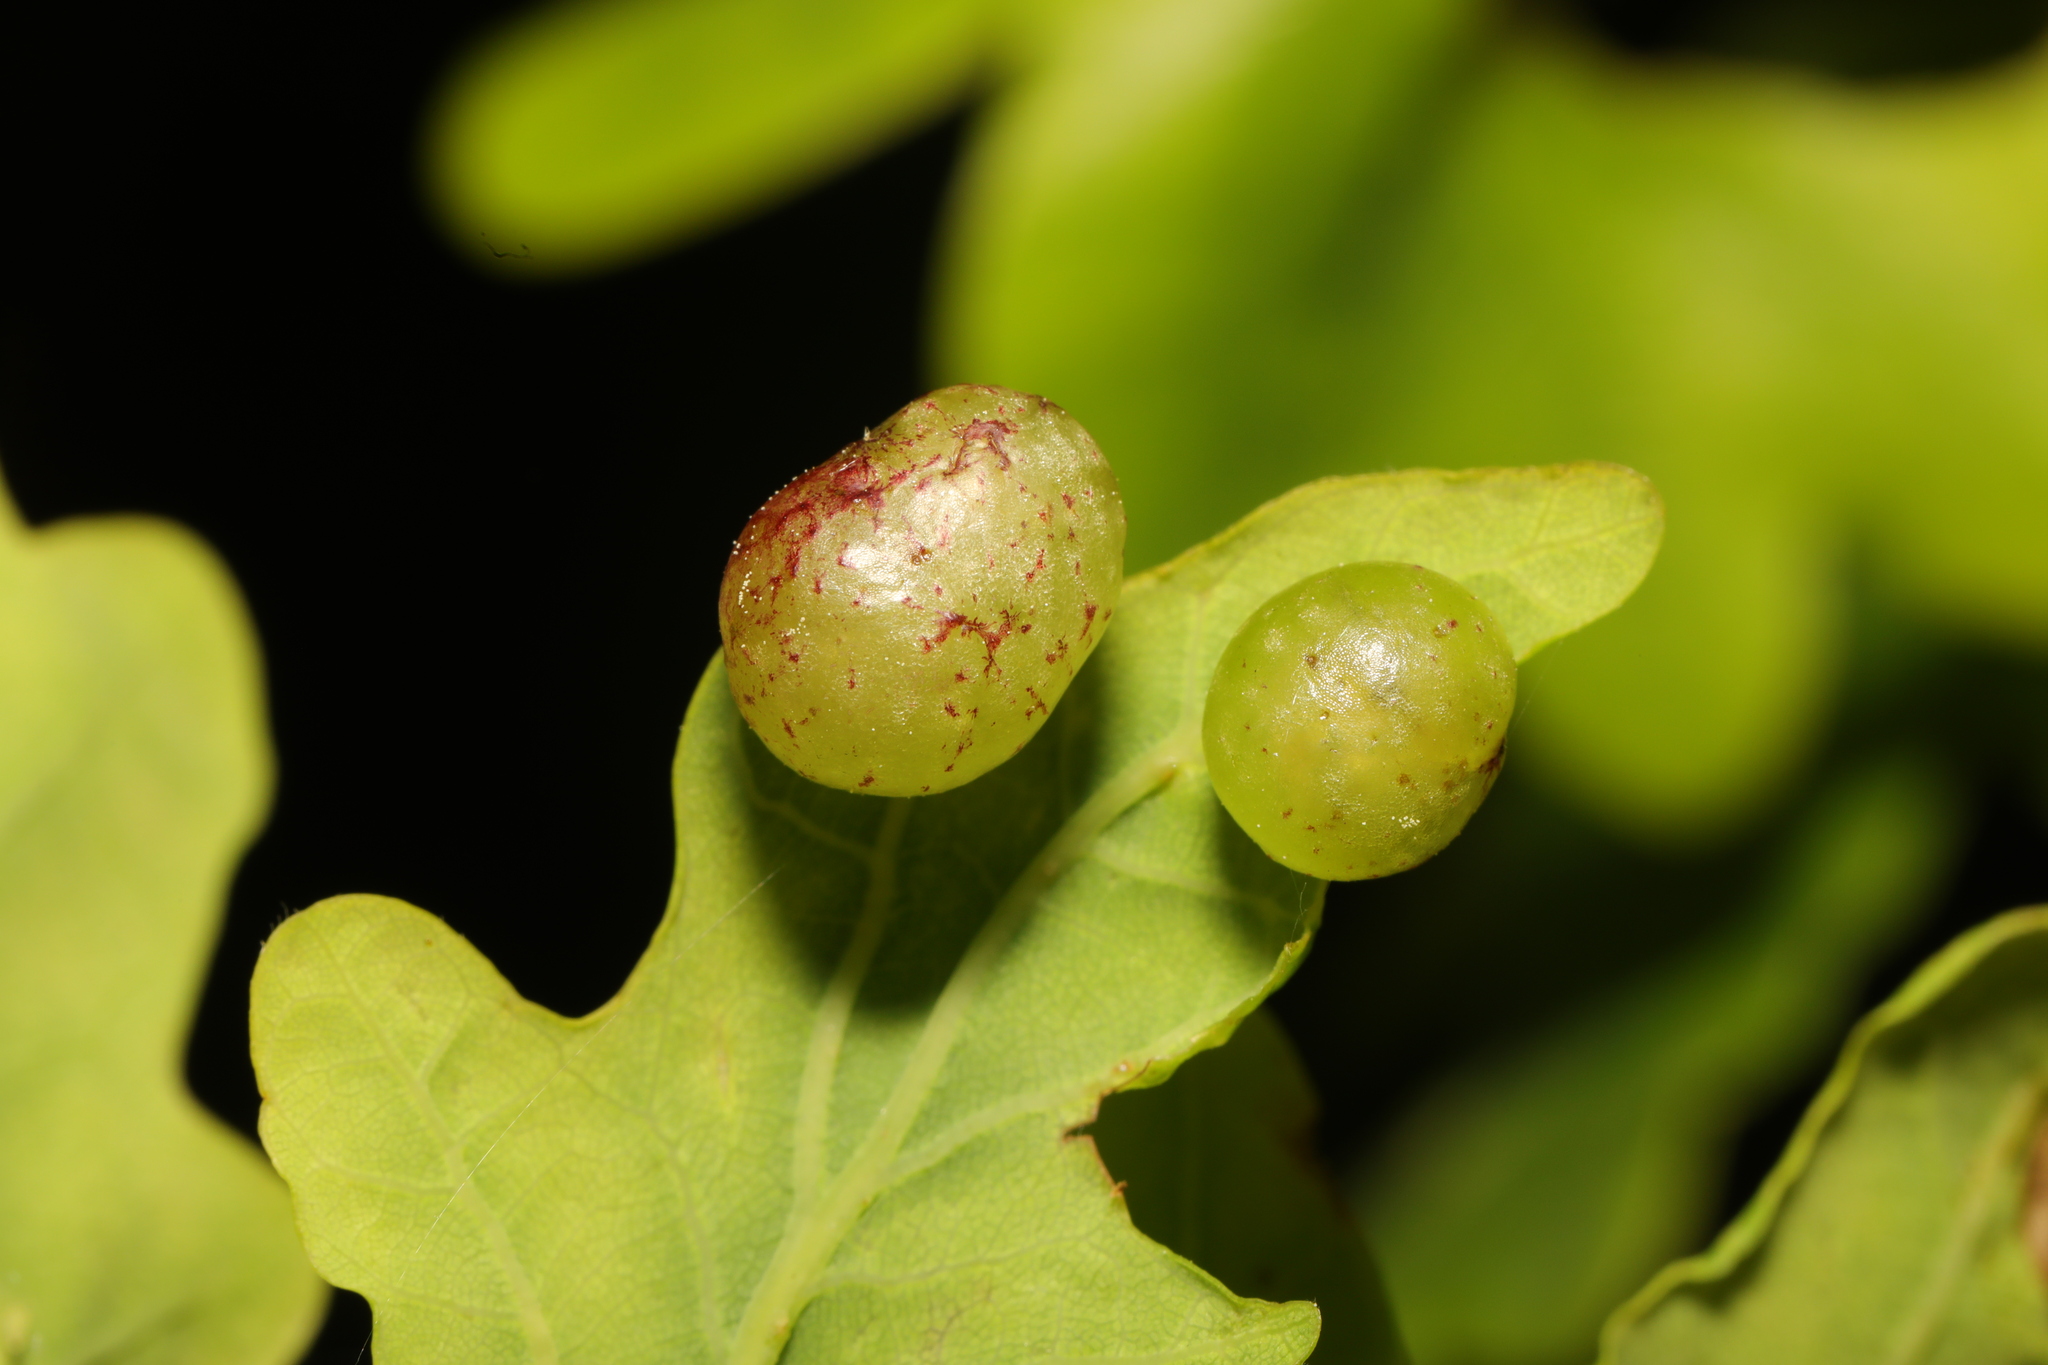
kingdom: Animalia
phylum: Arthropoda
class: Insecta
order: Hymenoptera
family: Cynipidae
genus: Neuroterus
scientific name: Neuroterus quercusbaccarum
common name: Common spangle gall
